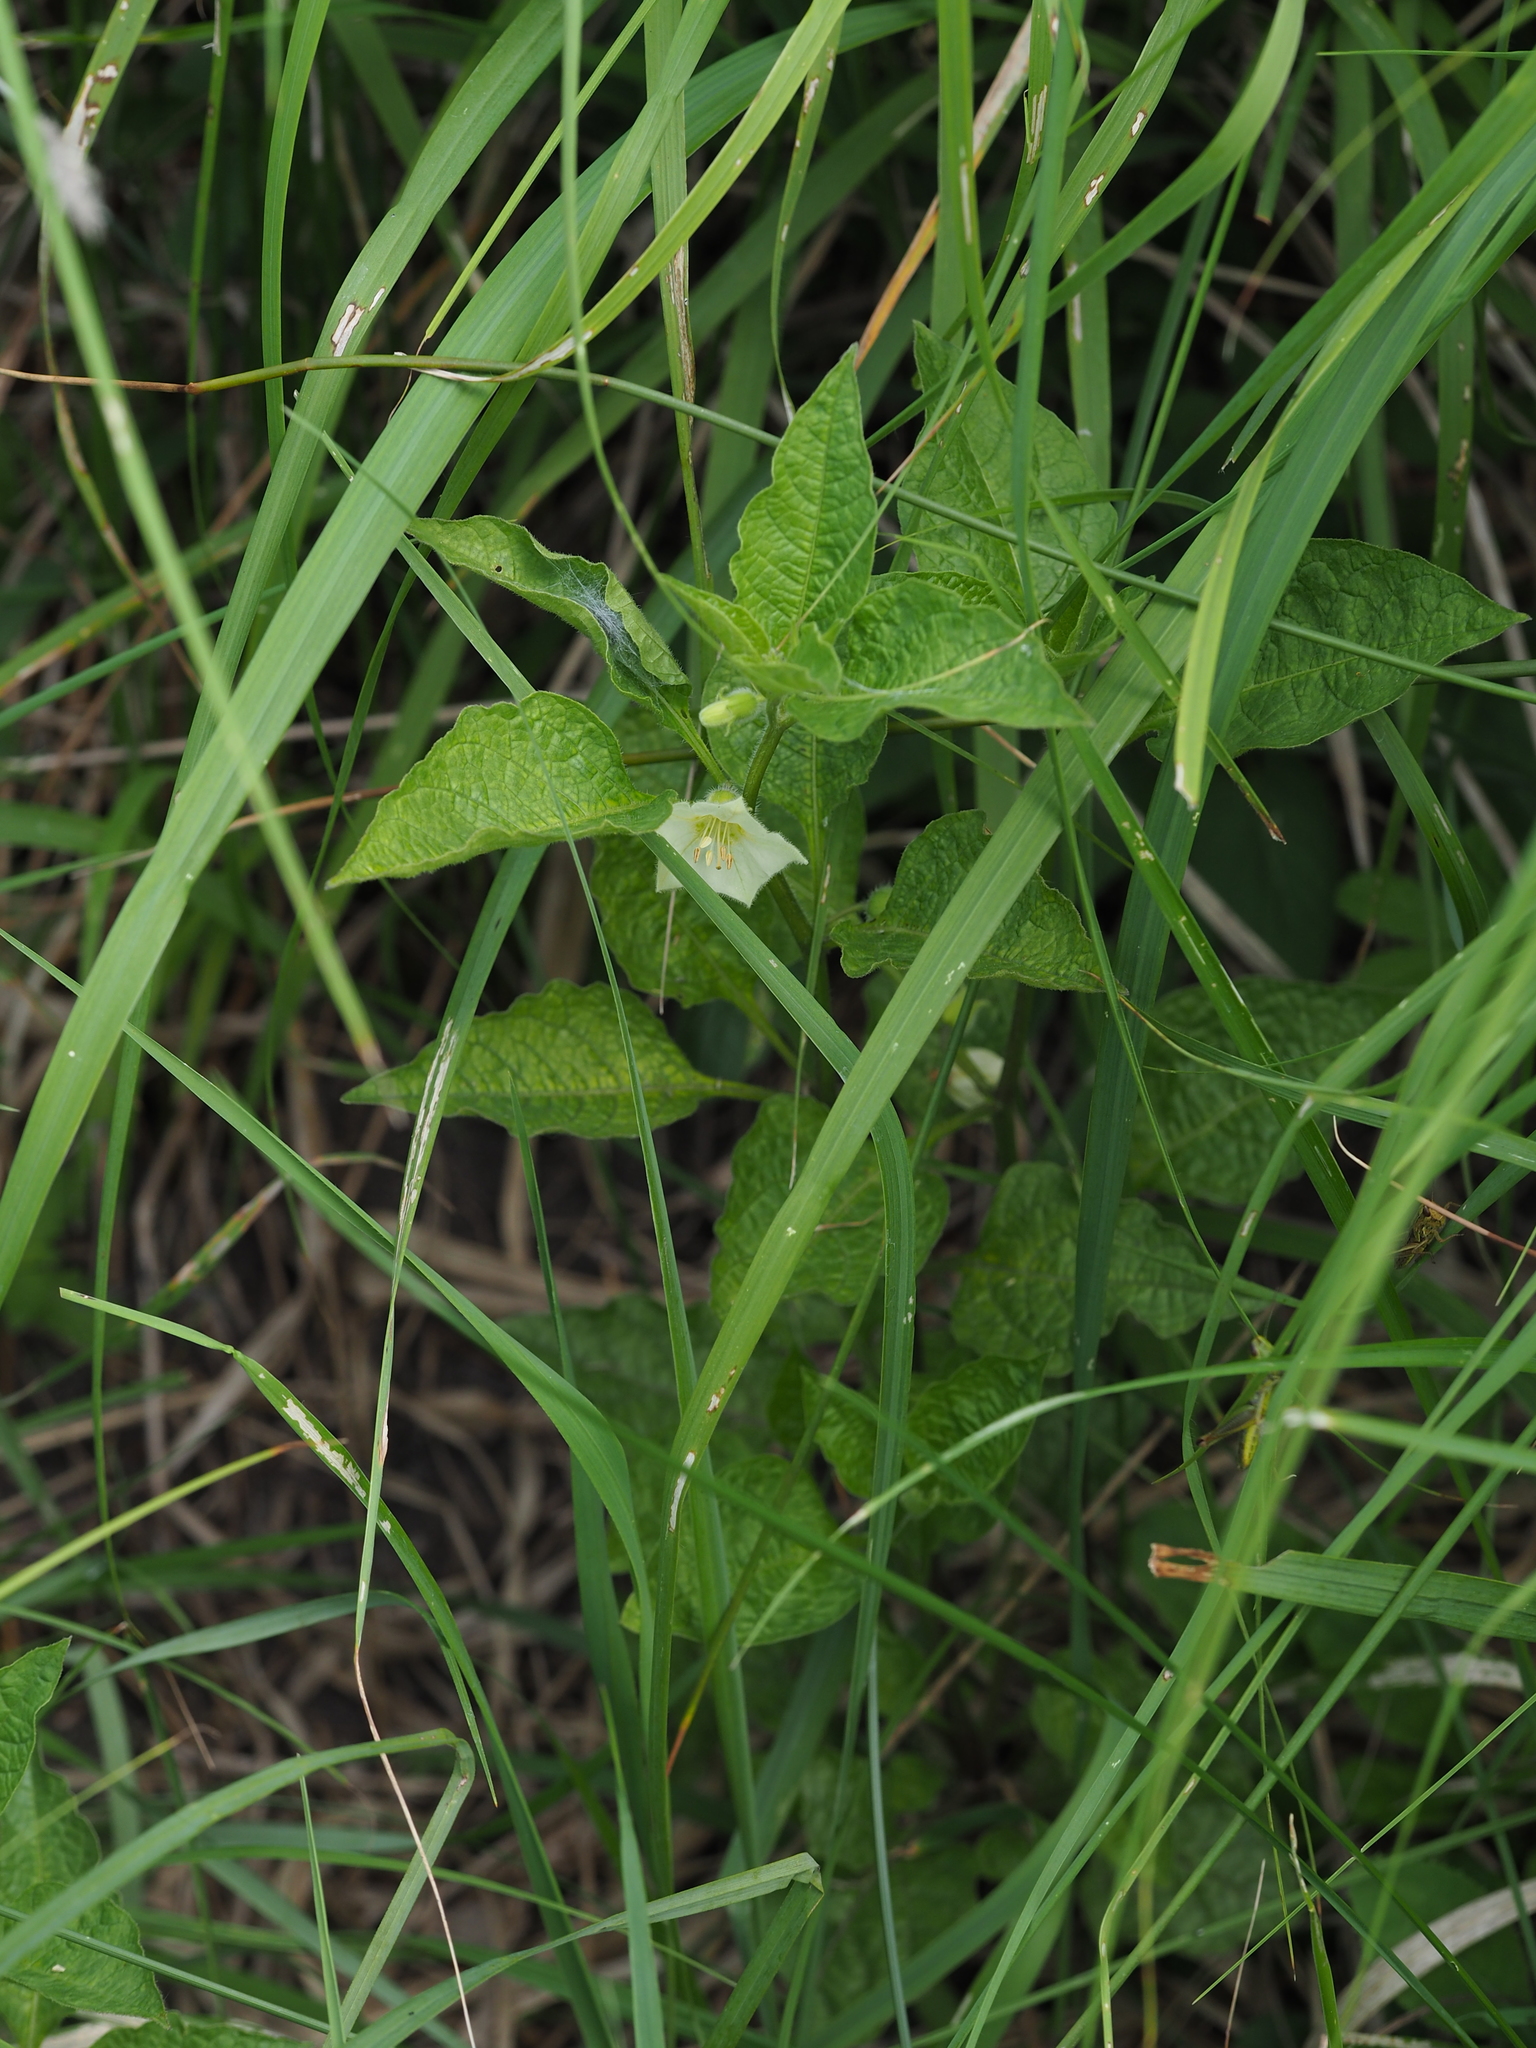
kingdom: Plantae
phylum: Tracheophyta
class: Magnoliopsida
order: Solanales
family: Solanaceae
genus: Alkekengi
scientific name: Alkekengi officinarum
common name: Japanese-lantern
